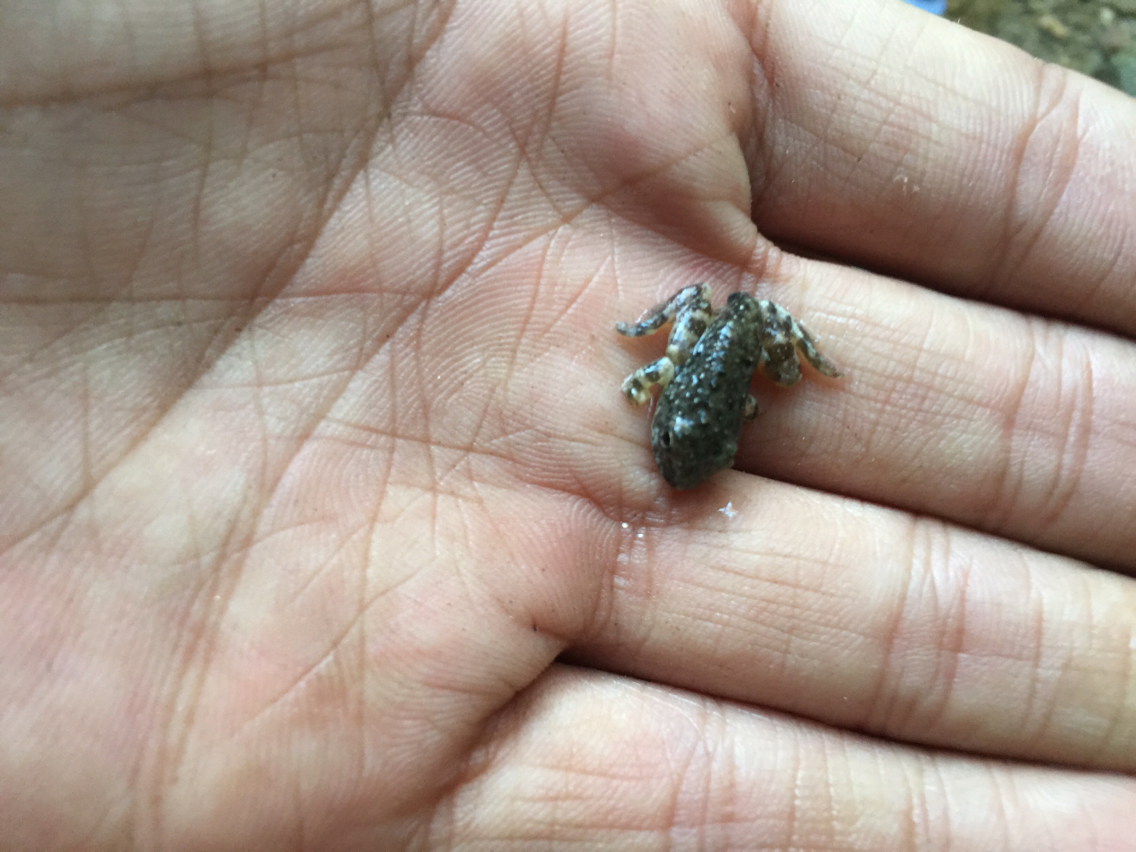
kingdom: Animalia
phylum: Chordata
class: Amphibia
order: Anura
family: Hylidae
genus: Pseudacris
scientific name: Pseudacris cadaverina
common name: California chorus frog
